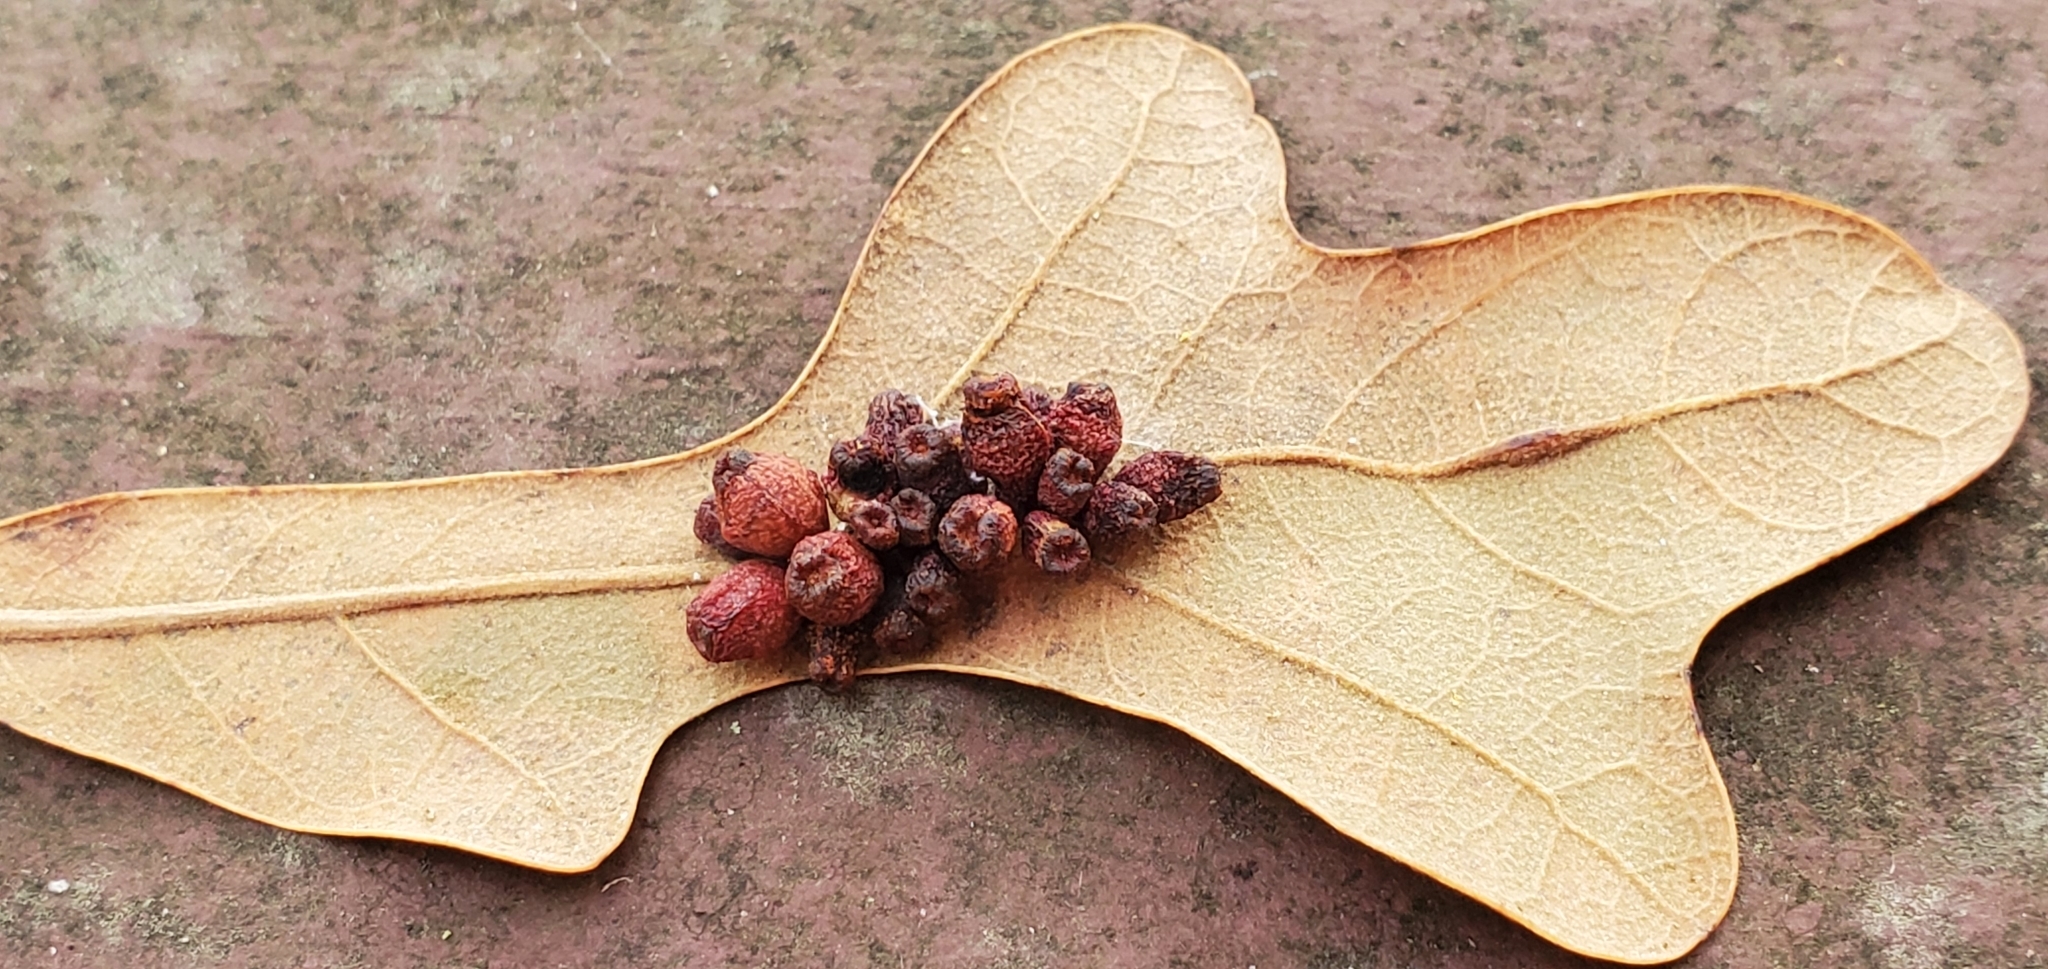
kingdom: Animalia
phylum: Arthropoda
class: Insecta
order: Hymenoptera
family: Cynipidae
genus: Andricus
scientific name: Andricus lustrans
